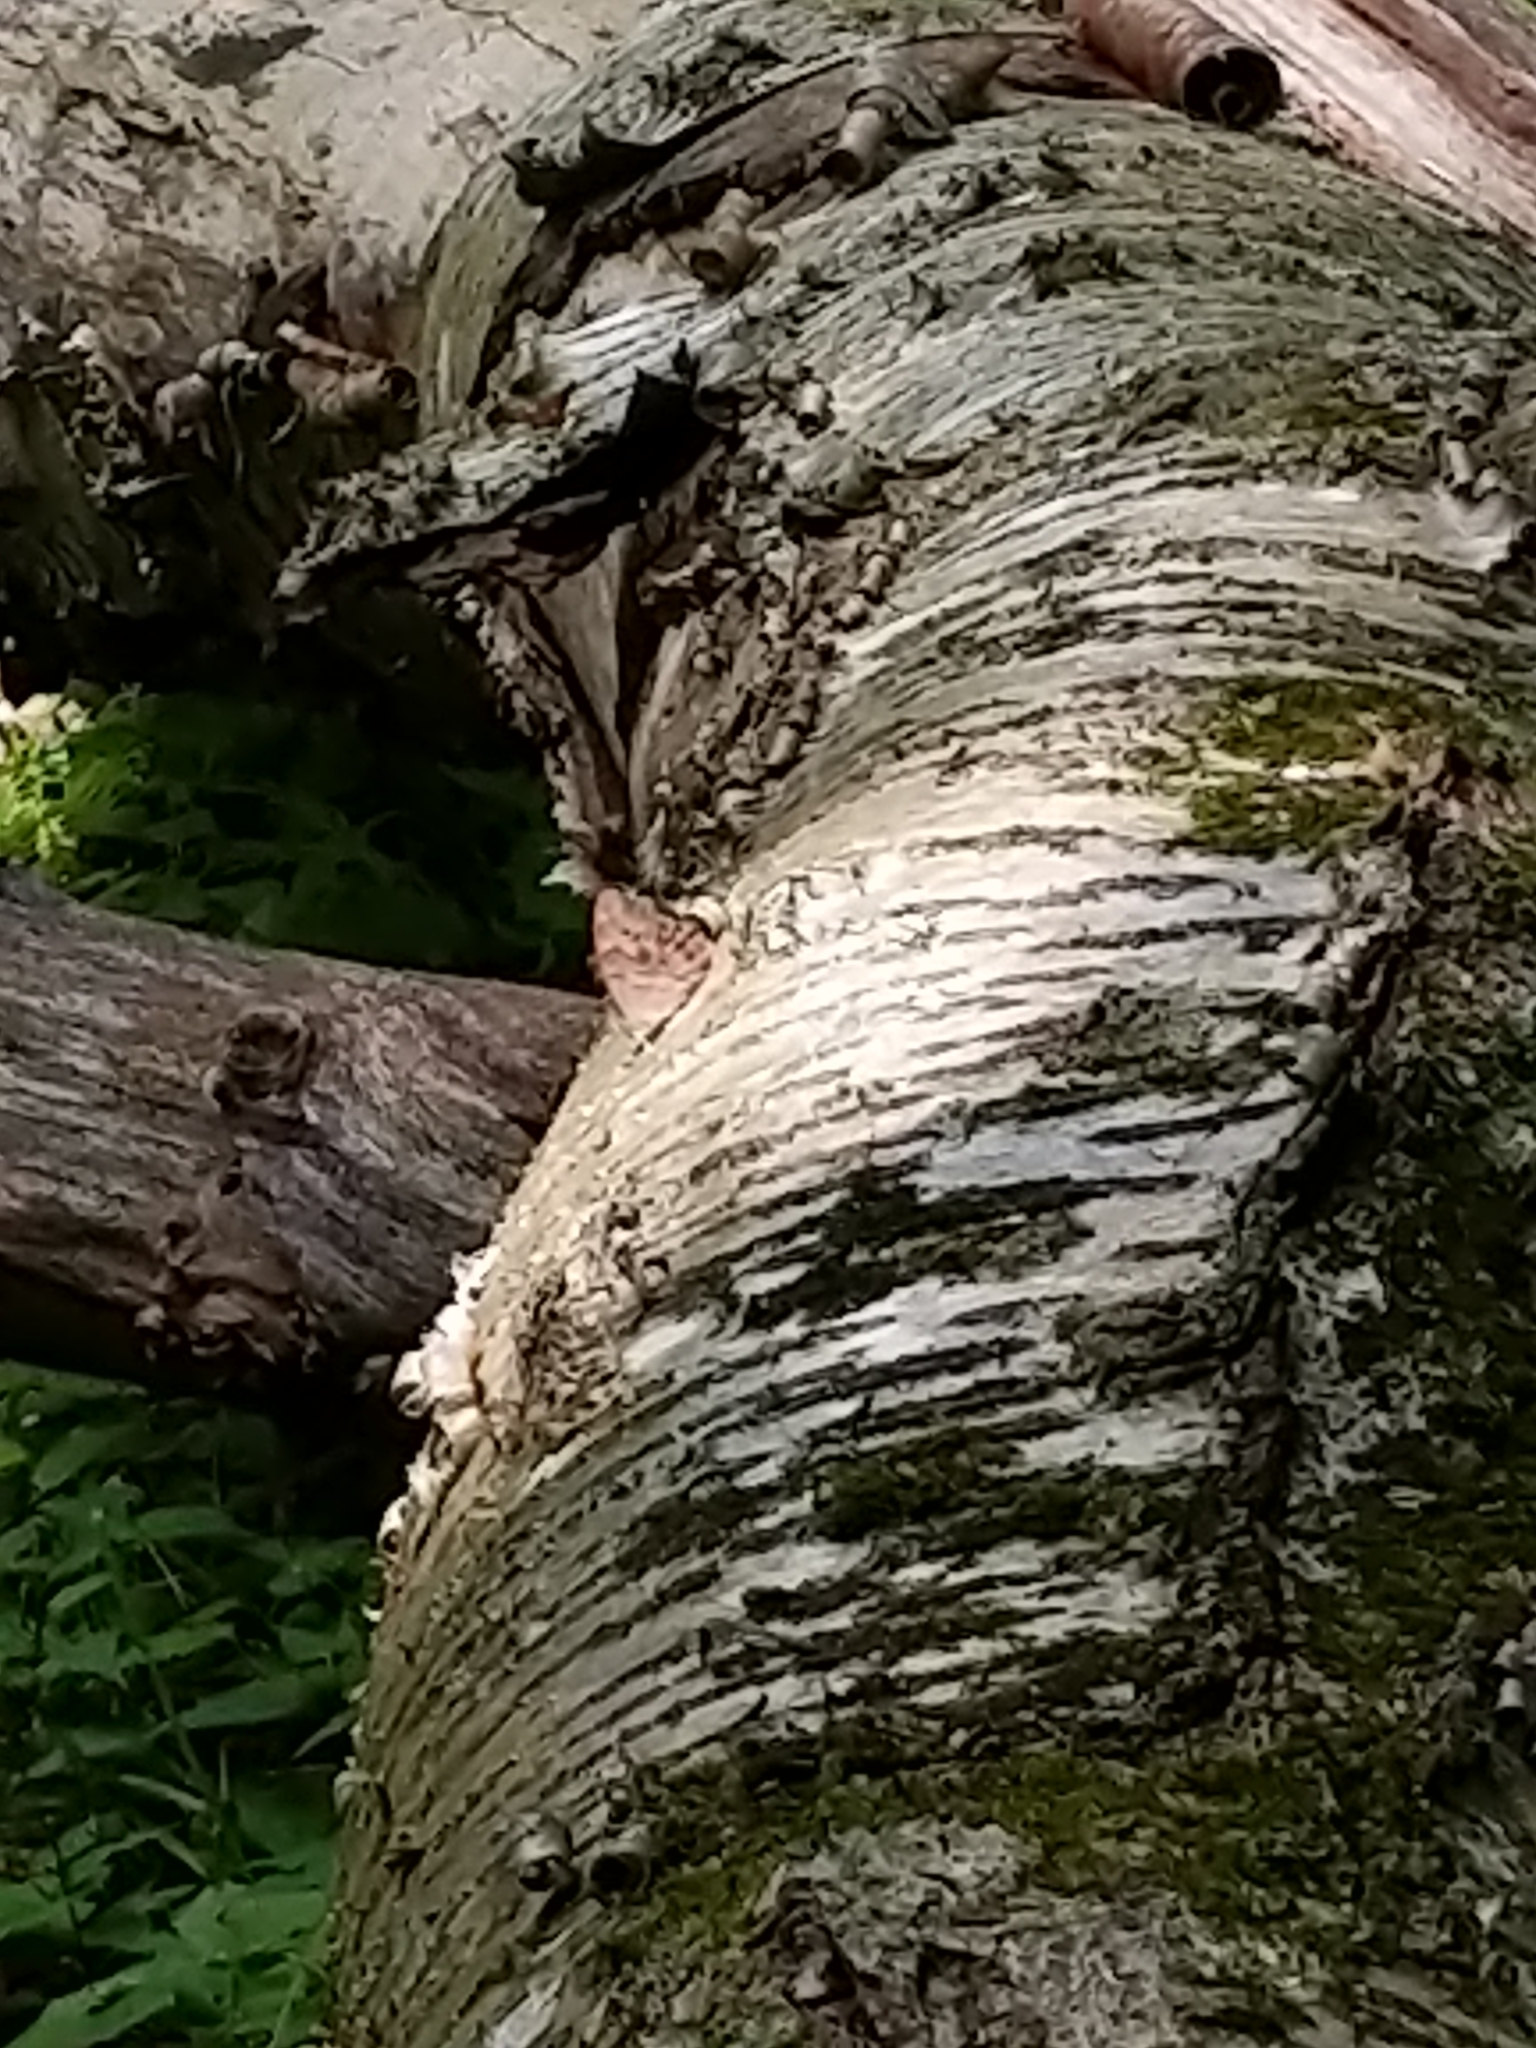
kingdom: Animalia
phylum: Arthropoda
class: Insecta
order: Lepidoptera
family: Nymphalidae
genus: Lethe
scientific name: Lethe anthedon
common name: Northern pearly-eye
